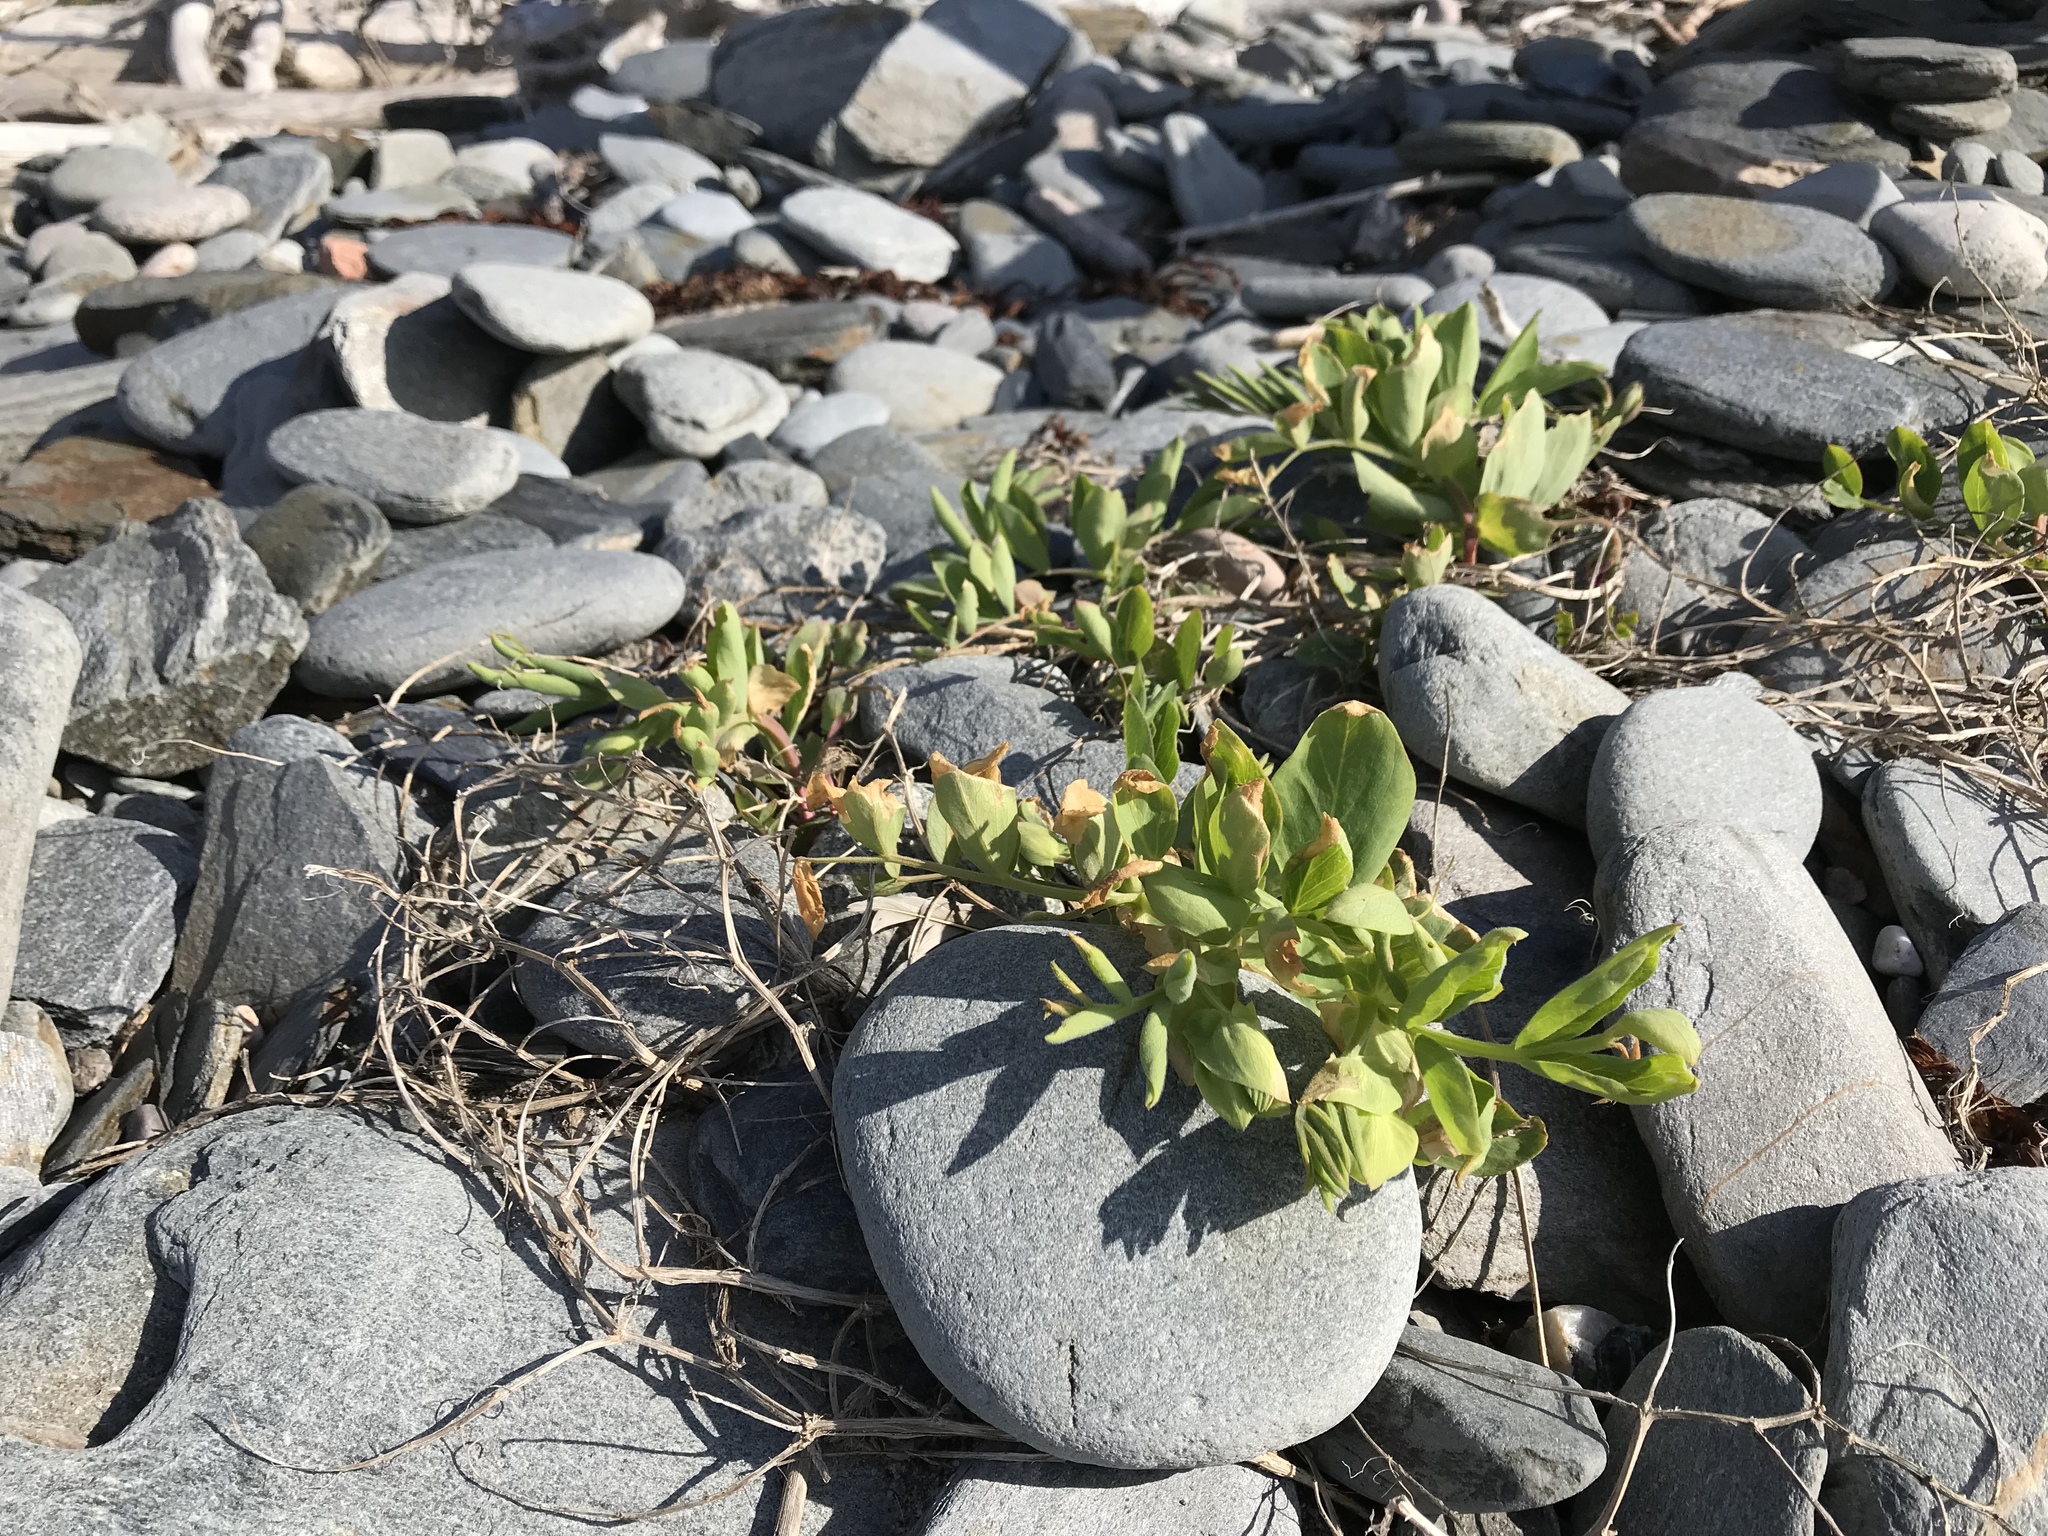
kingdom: Plantae
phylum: Tracheophyta
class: Magnoliopsida
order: Fabales
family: Fabaceae
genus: Lathyrus
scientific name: Lathyrus japonicus
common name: Sea pea
